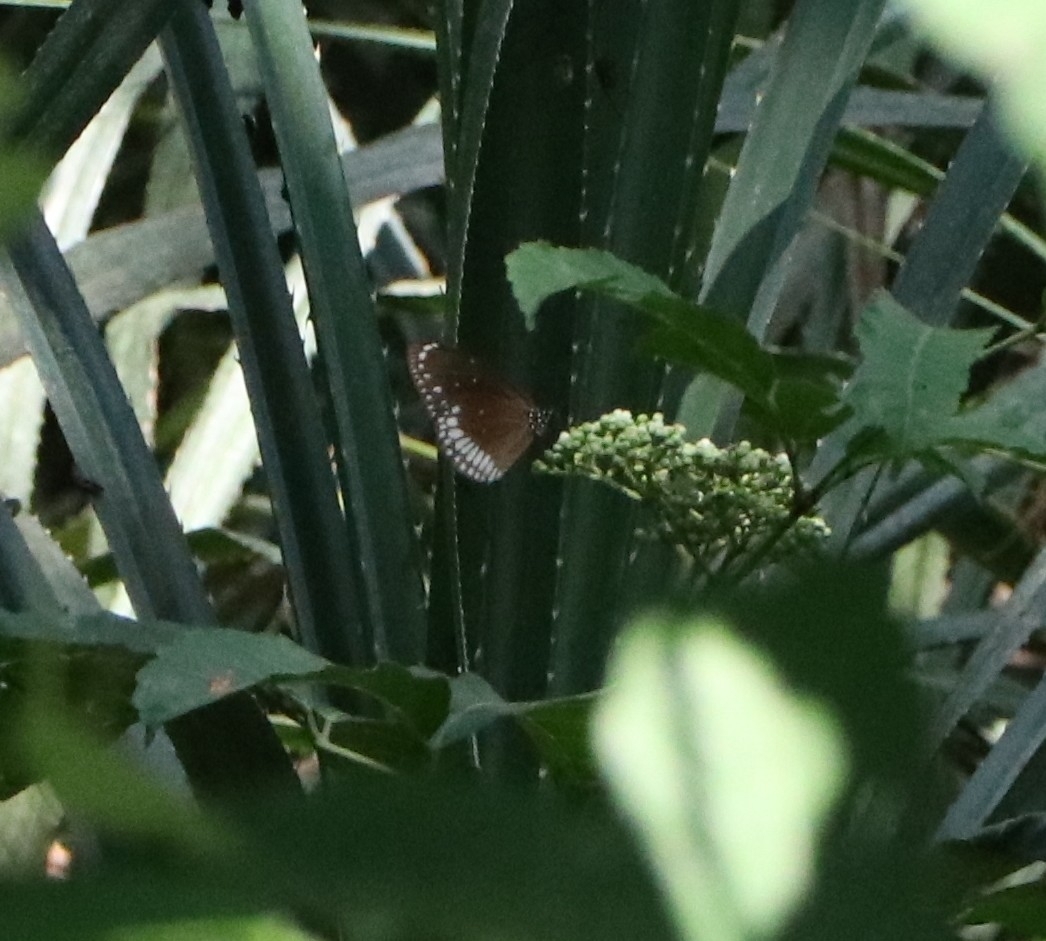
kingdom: Animalia
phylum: Arthropoda
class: Insecta
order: Lepidoptera
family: Nymphalidae
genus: Euploea
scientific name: Euploea core
